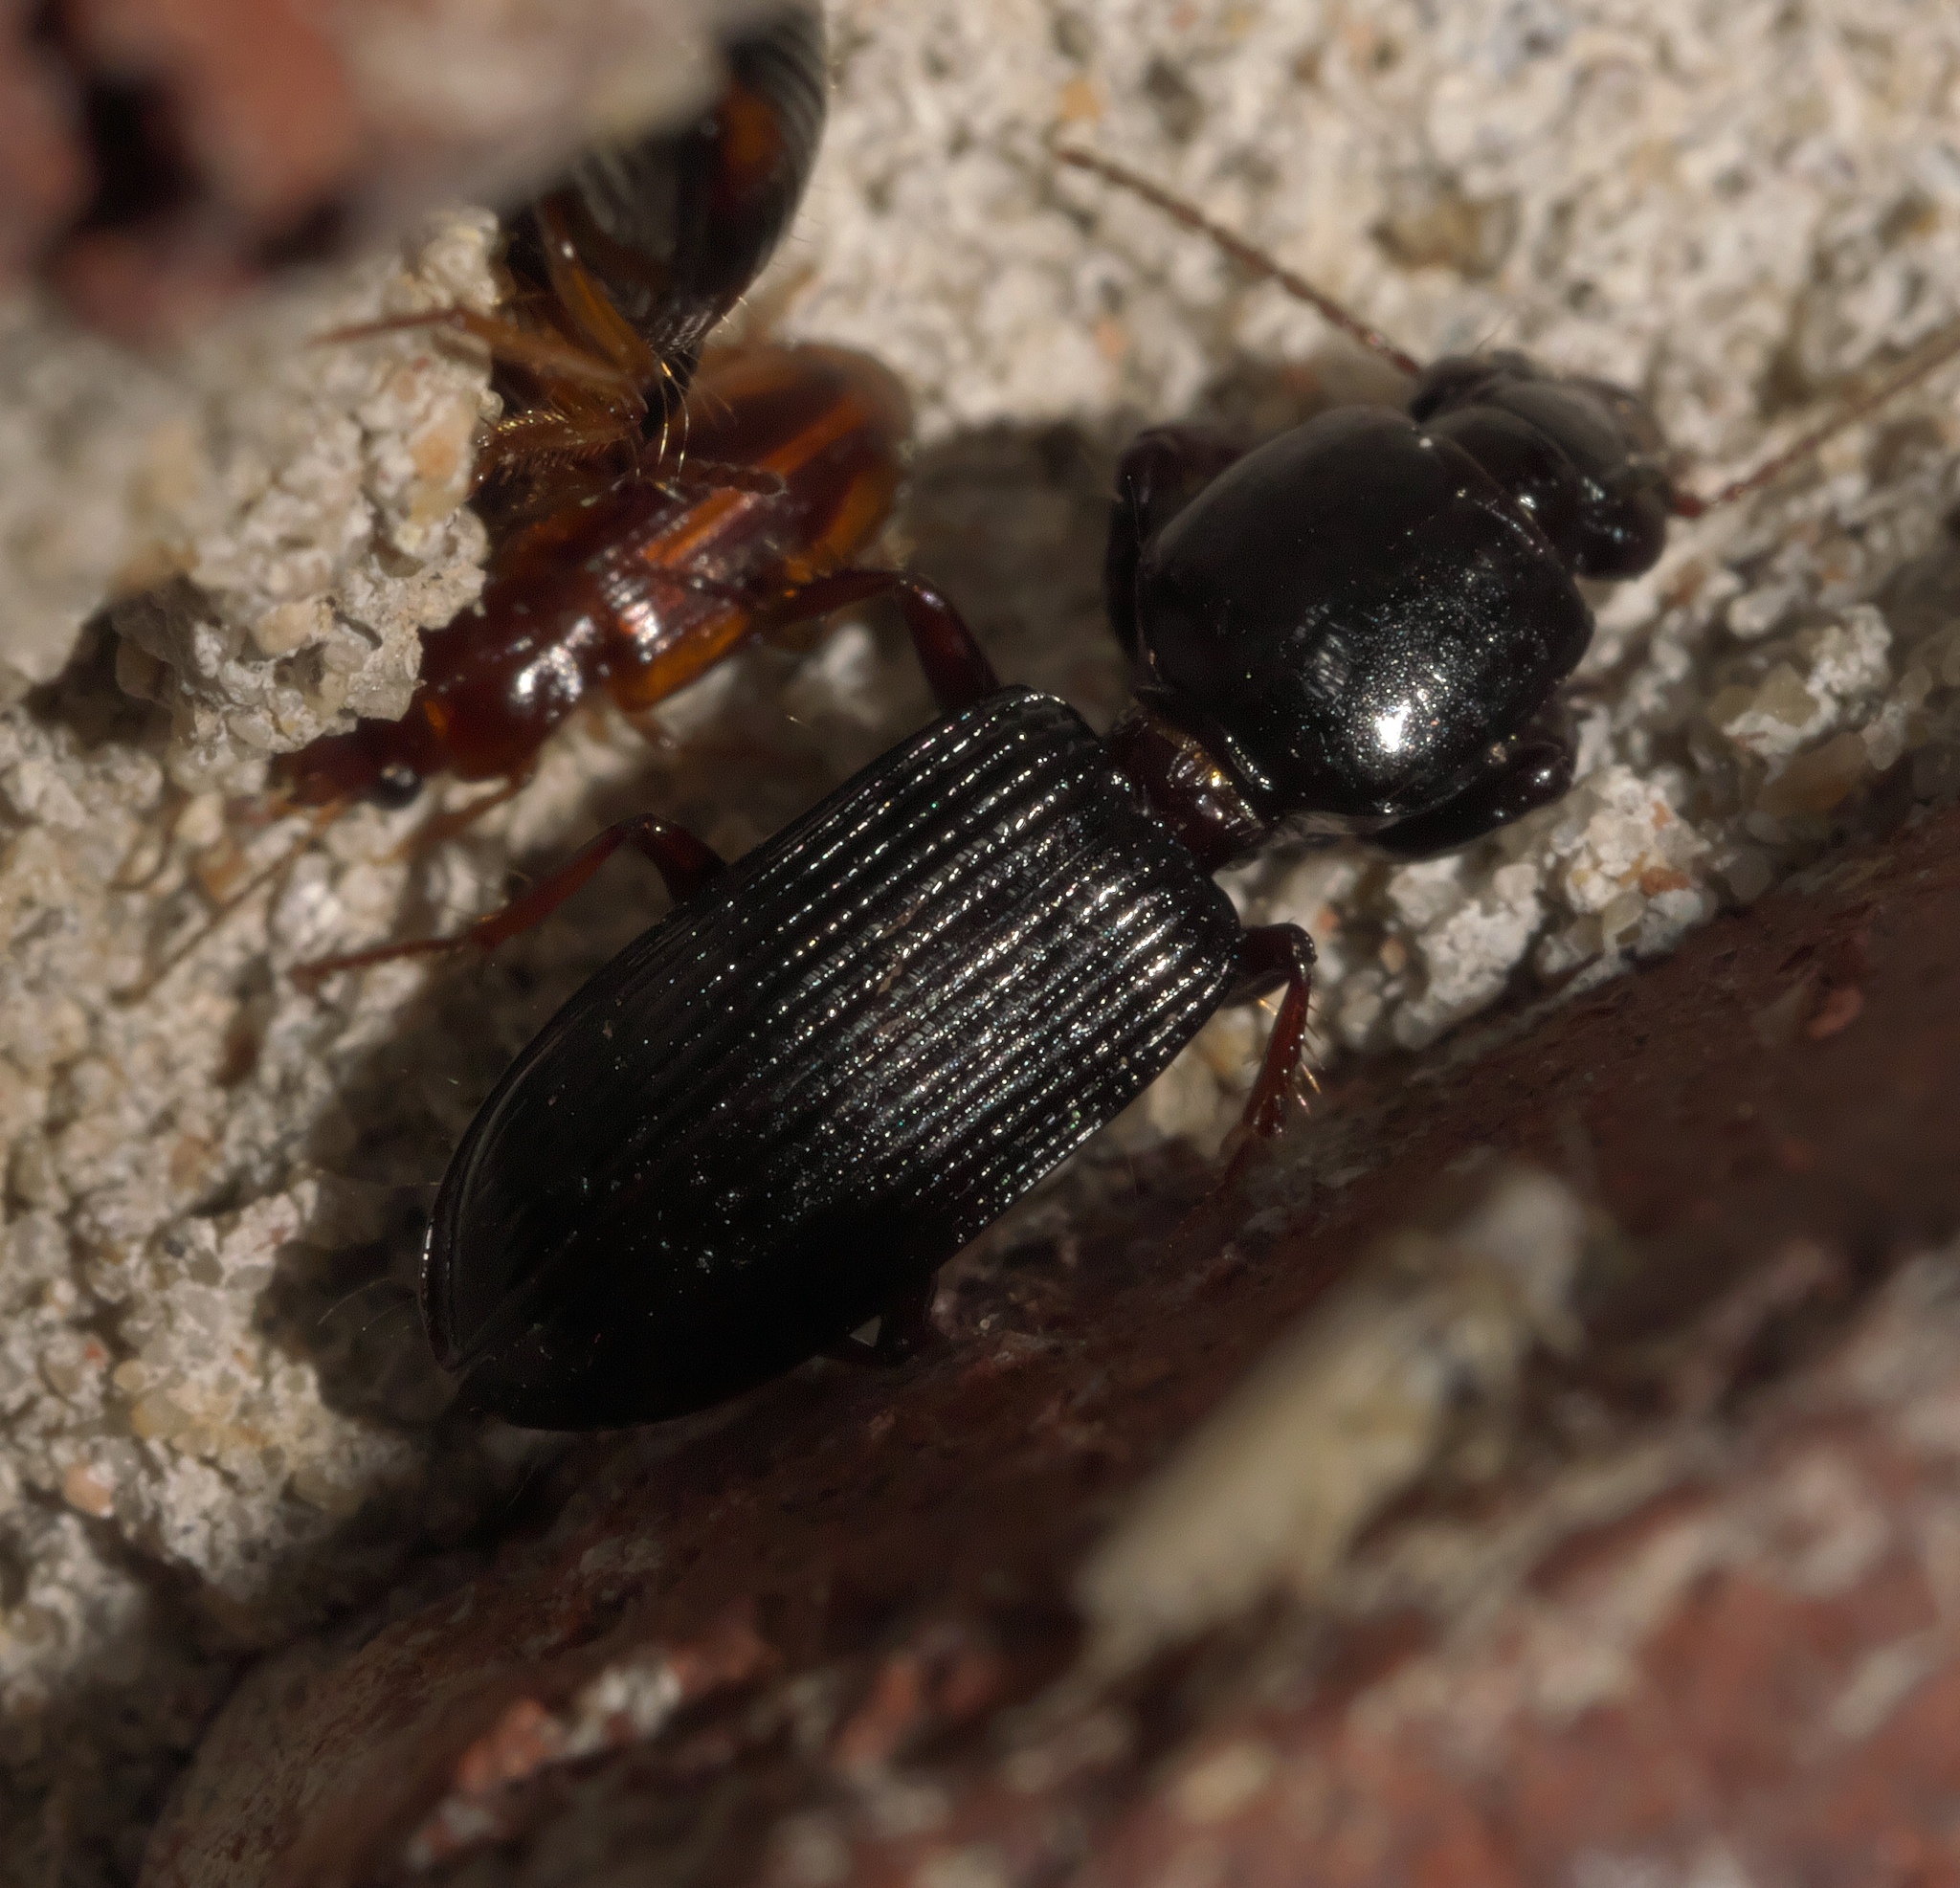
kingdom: Animalia
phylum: Arthropoda
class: Insecta
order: Coleoptera
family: Carabidae
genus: Aspidoglossa
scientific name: Aspidoglossa subangulata
